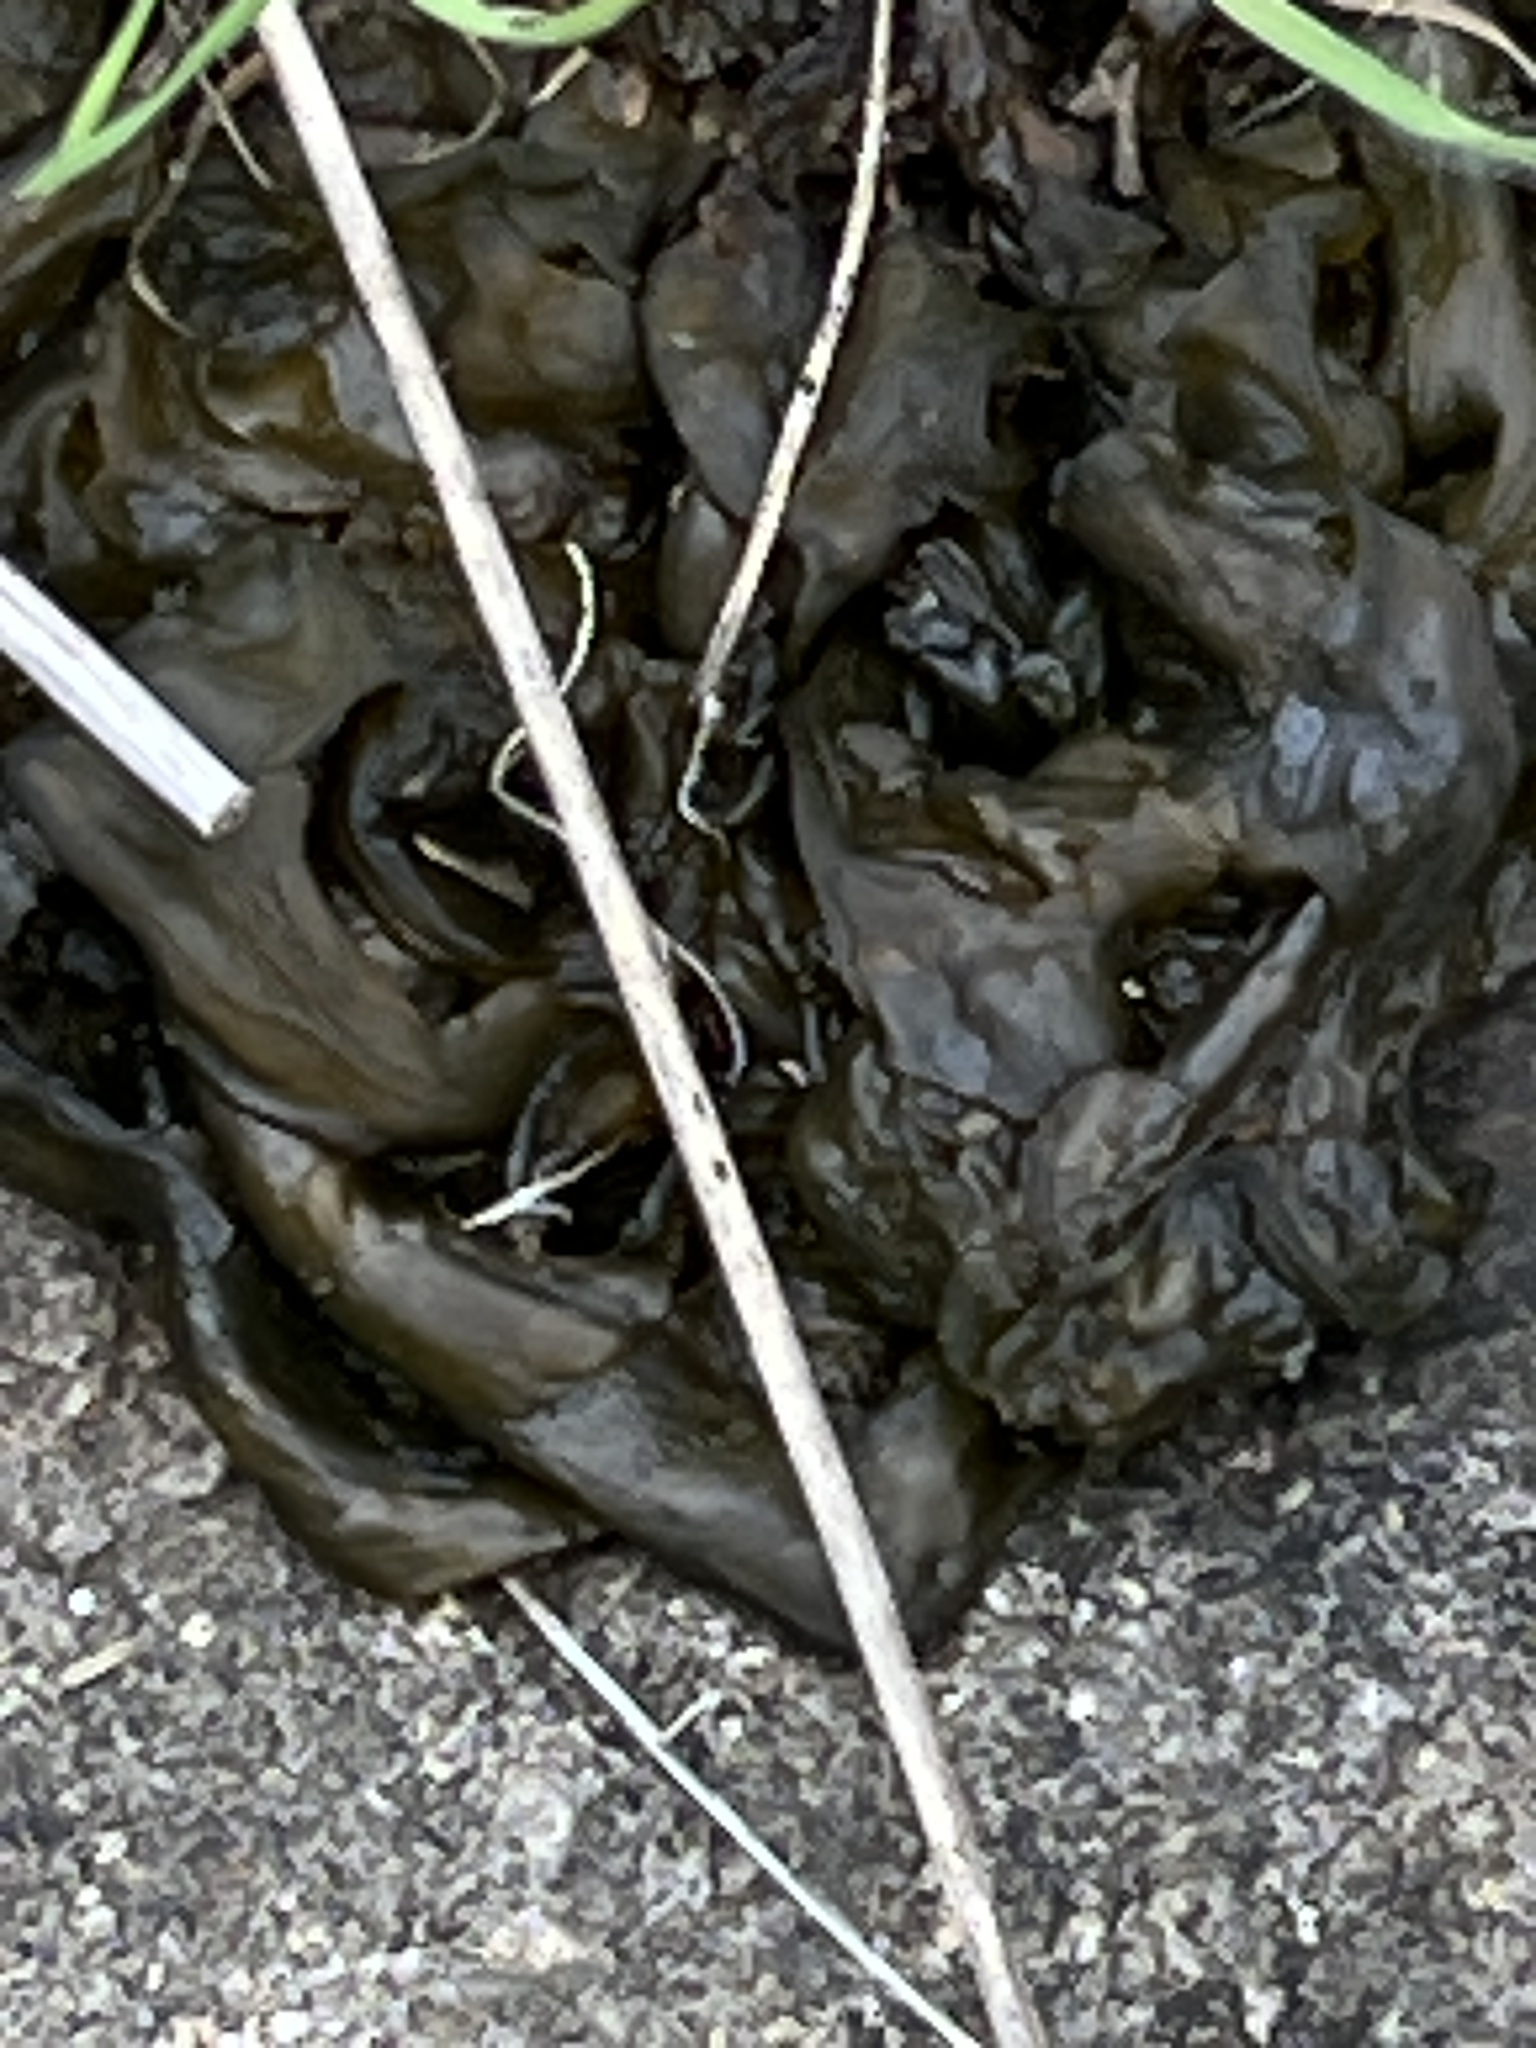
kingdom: Bacteria
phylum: Cyanobacteria
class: Cyanobacteriia
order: Cyanobacteriales
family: Nostocaceae
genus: Nostoc
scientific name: Nostoc commune
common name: Star jelly
